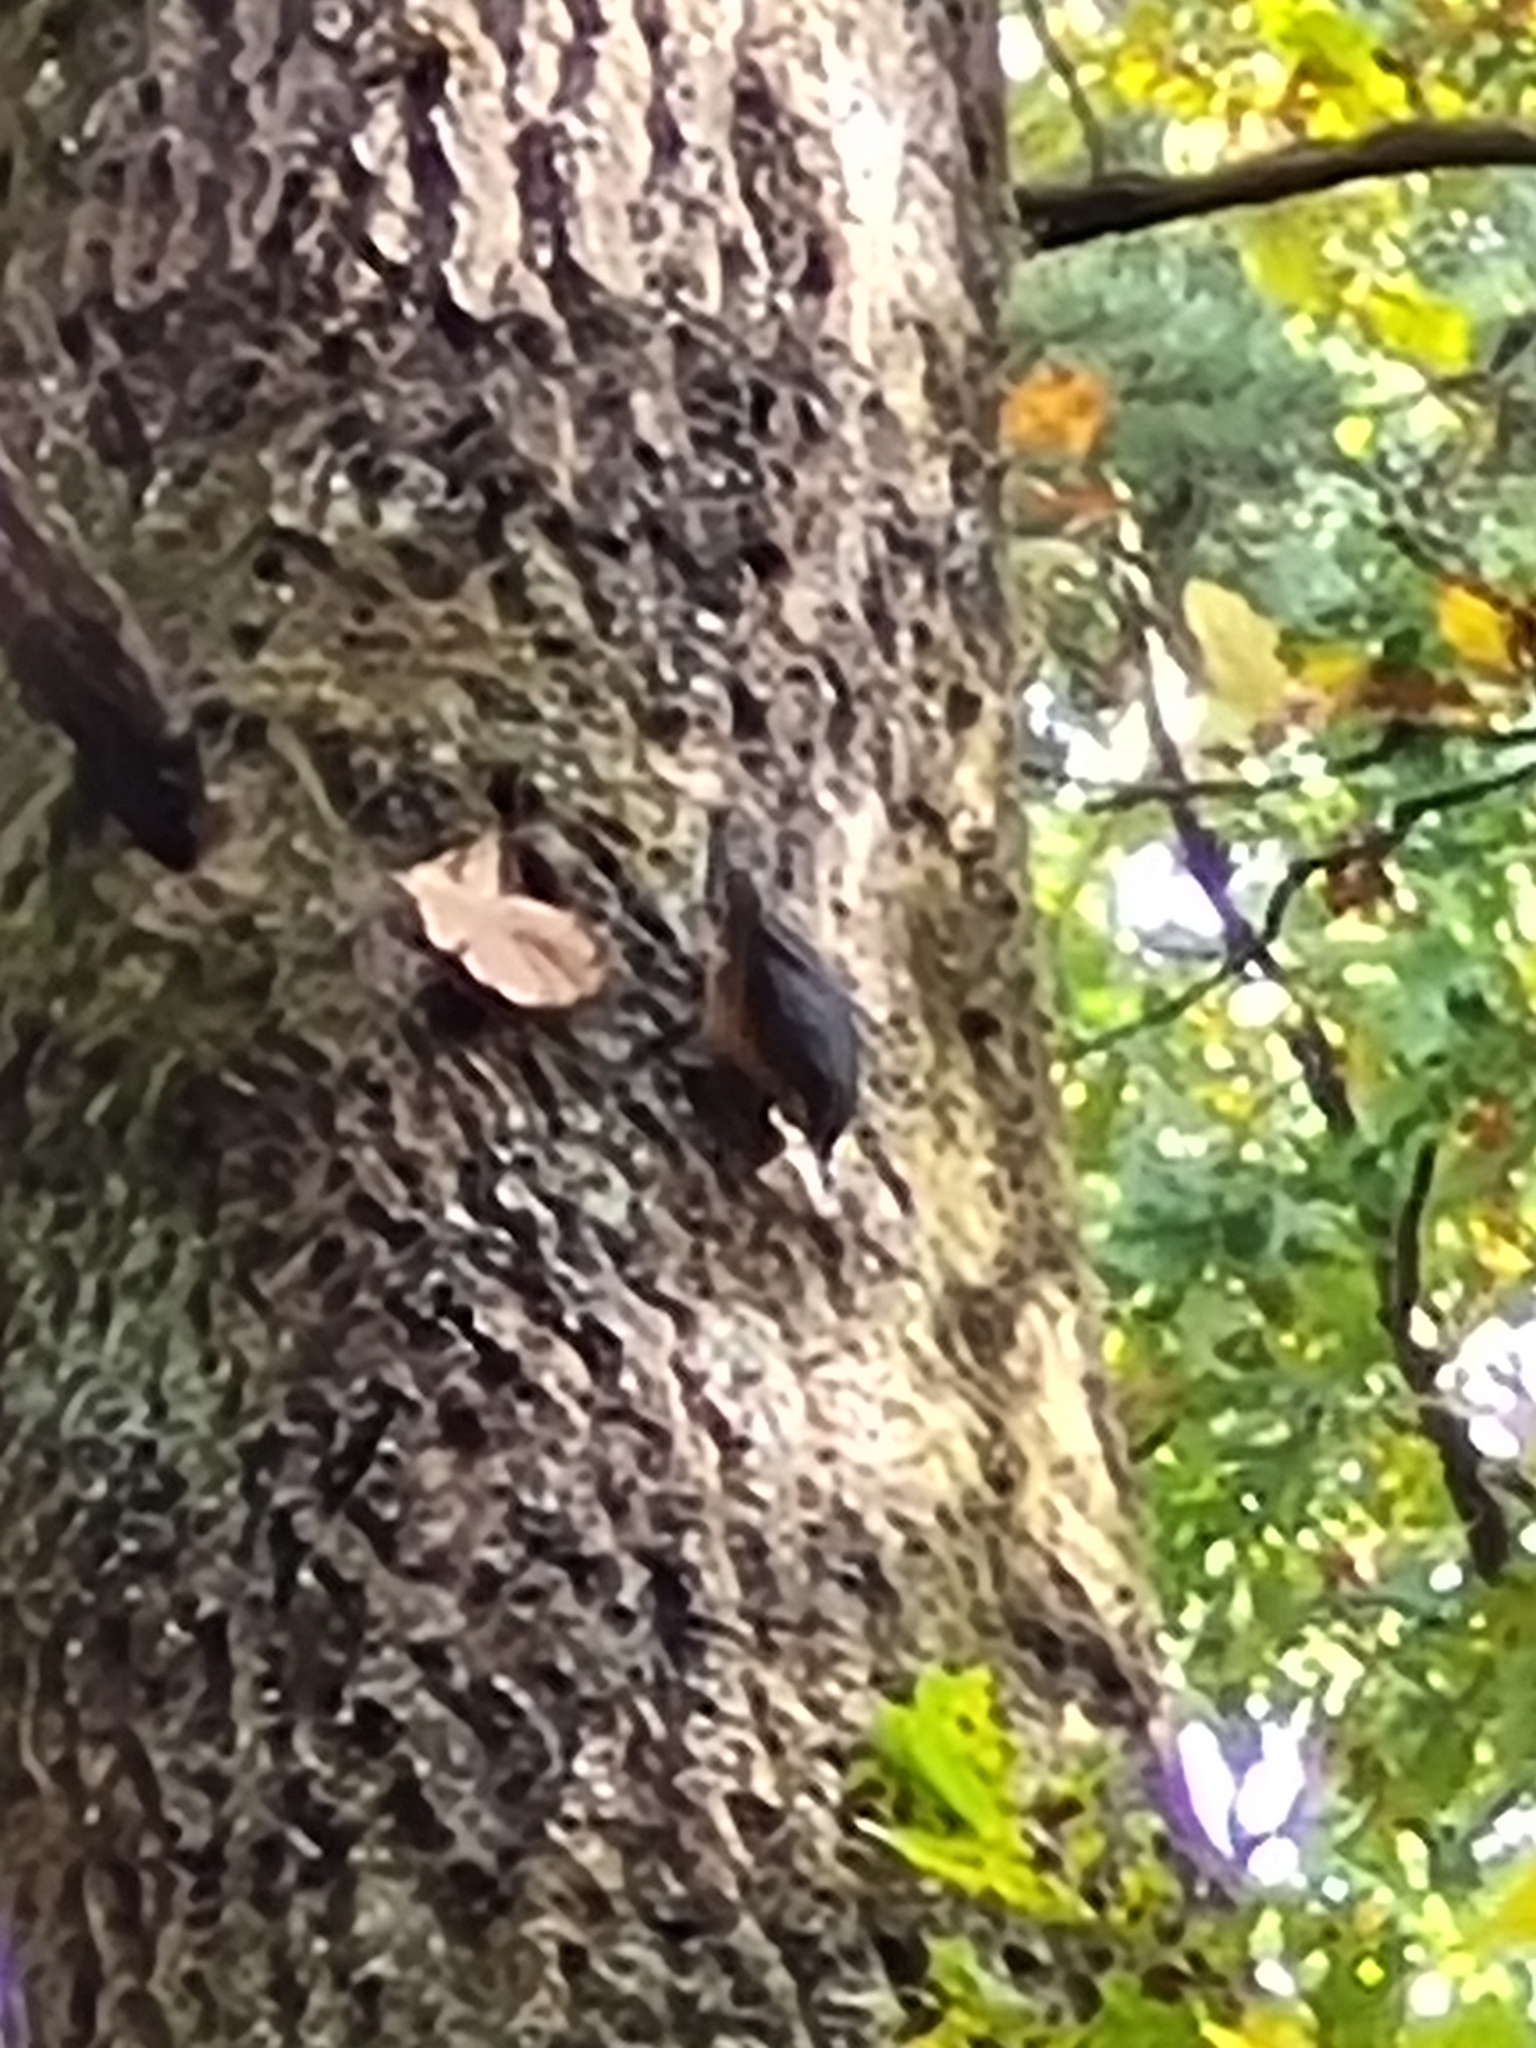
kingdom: Animalia
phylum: Chordata
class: Aves
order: Passeriformes
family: Sittidae
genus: Sitta
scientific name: Sitta europaea
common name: Eurasian nuthatch
